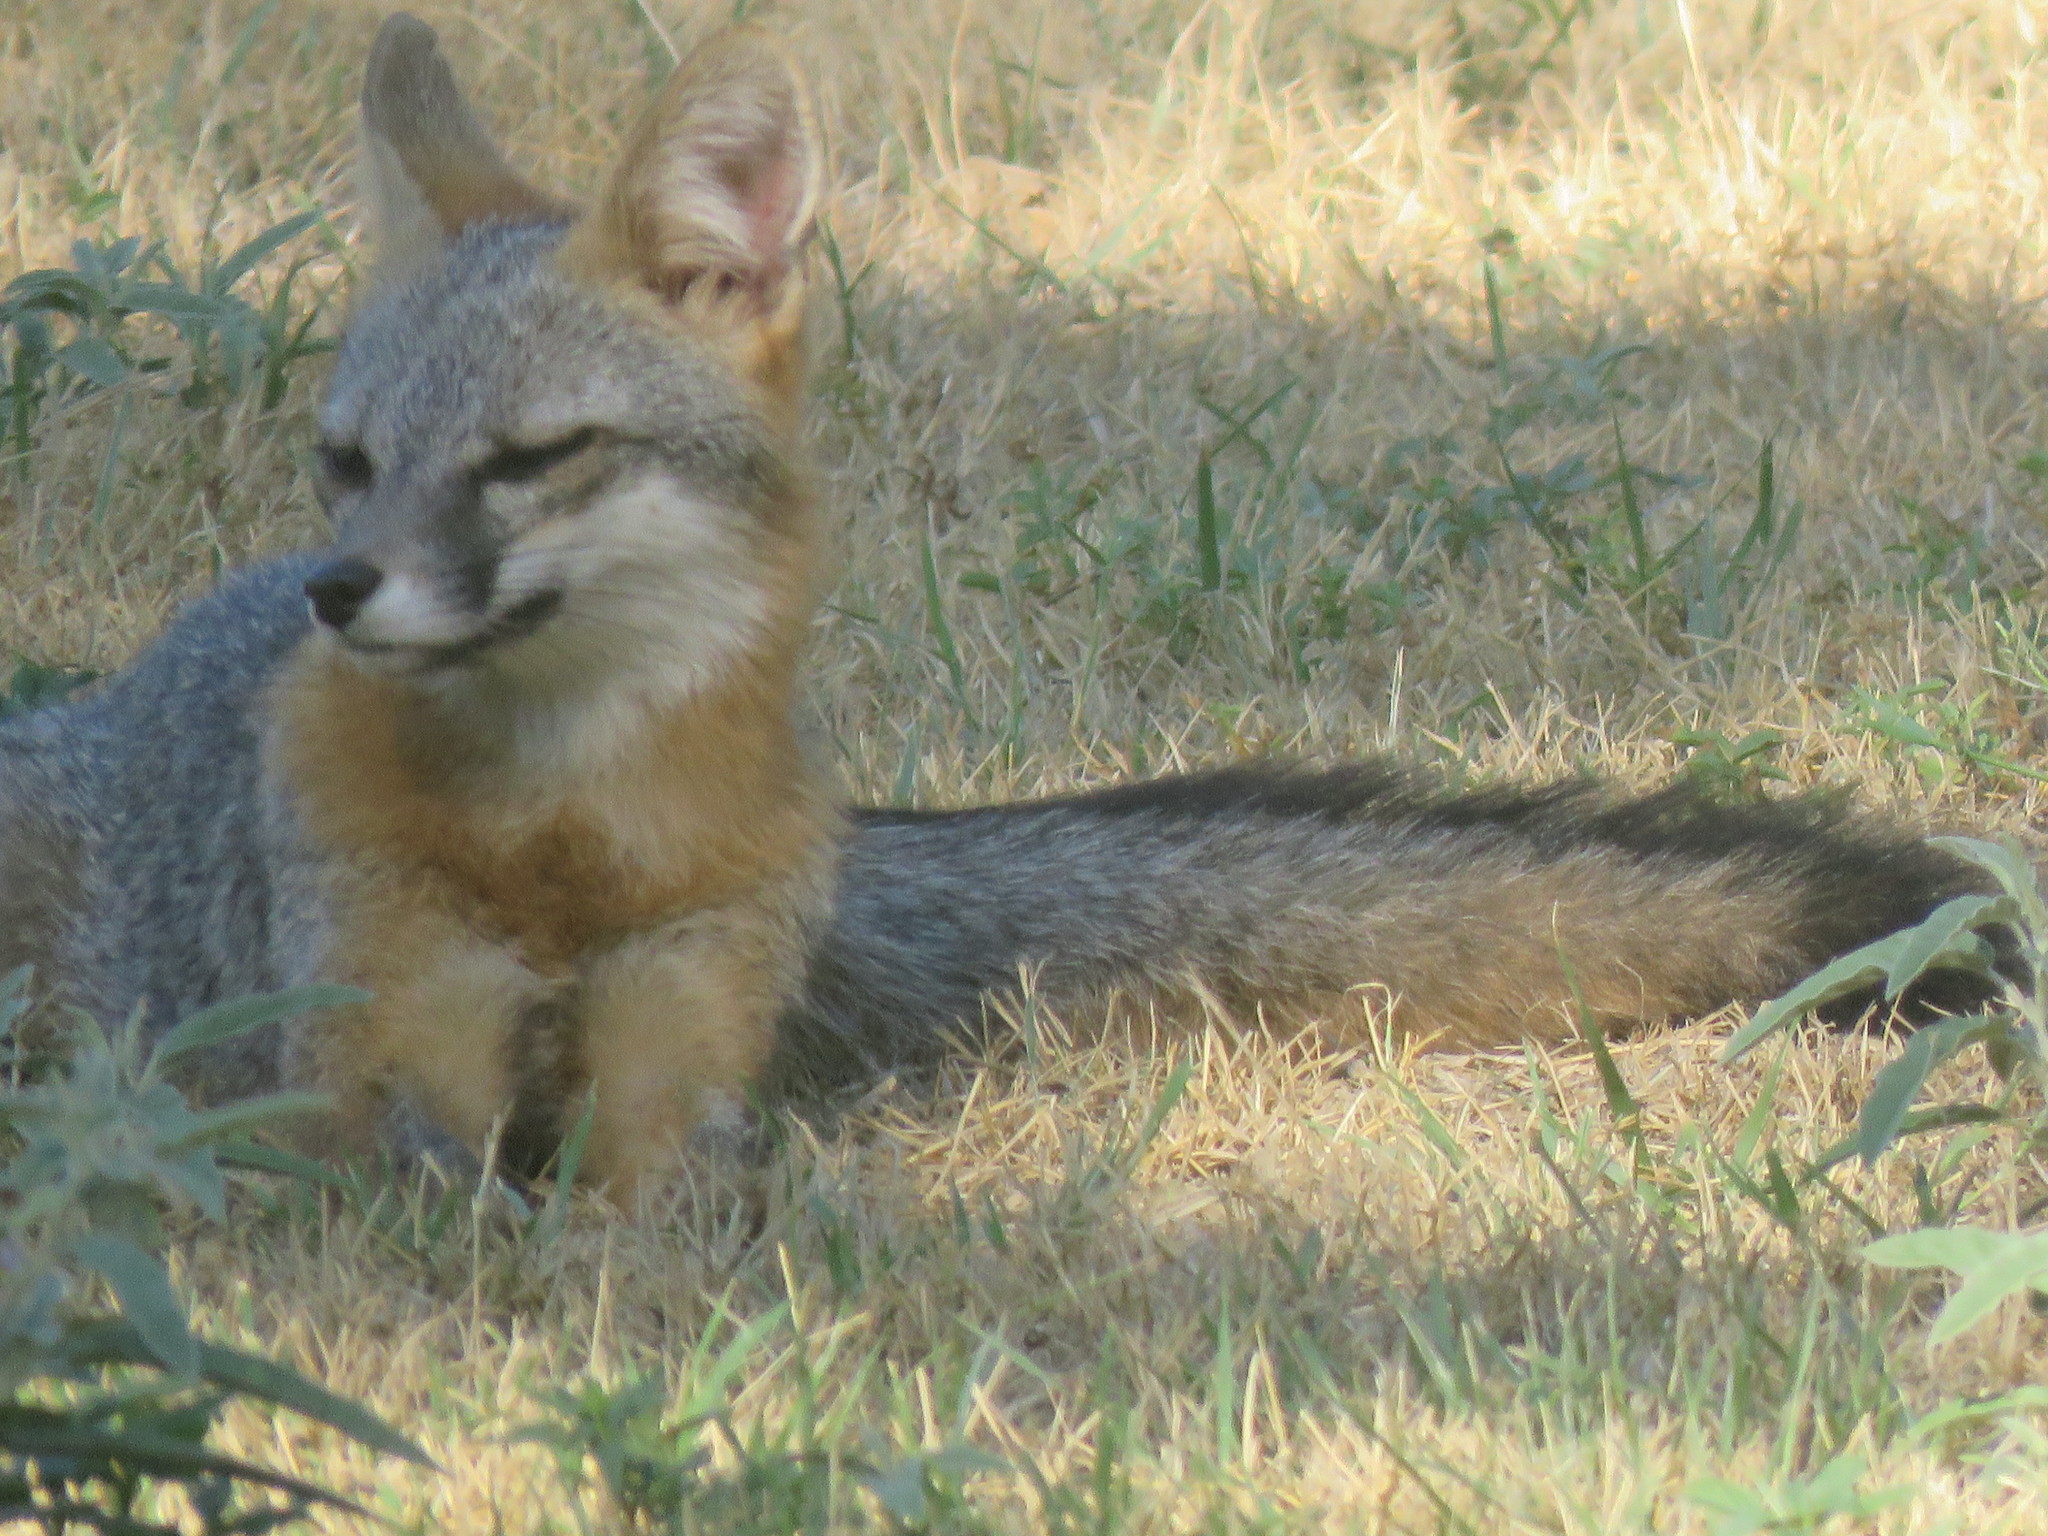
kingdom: Animalia
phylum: Chordata
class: Mammalia
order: Carnivora
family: Canidae
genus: Urocyon
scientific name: Urocyon cinereoargenteus
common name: Gray fox
